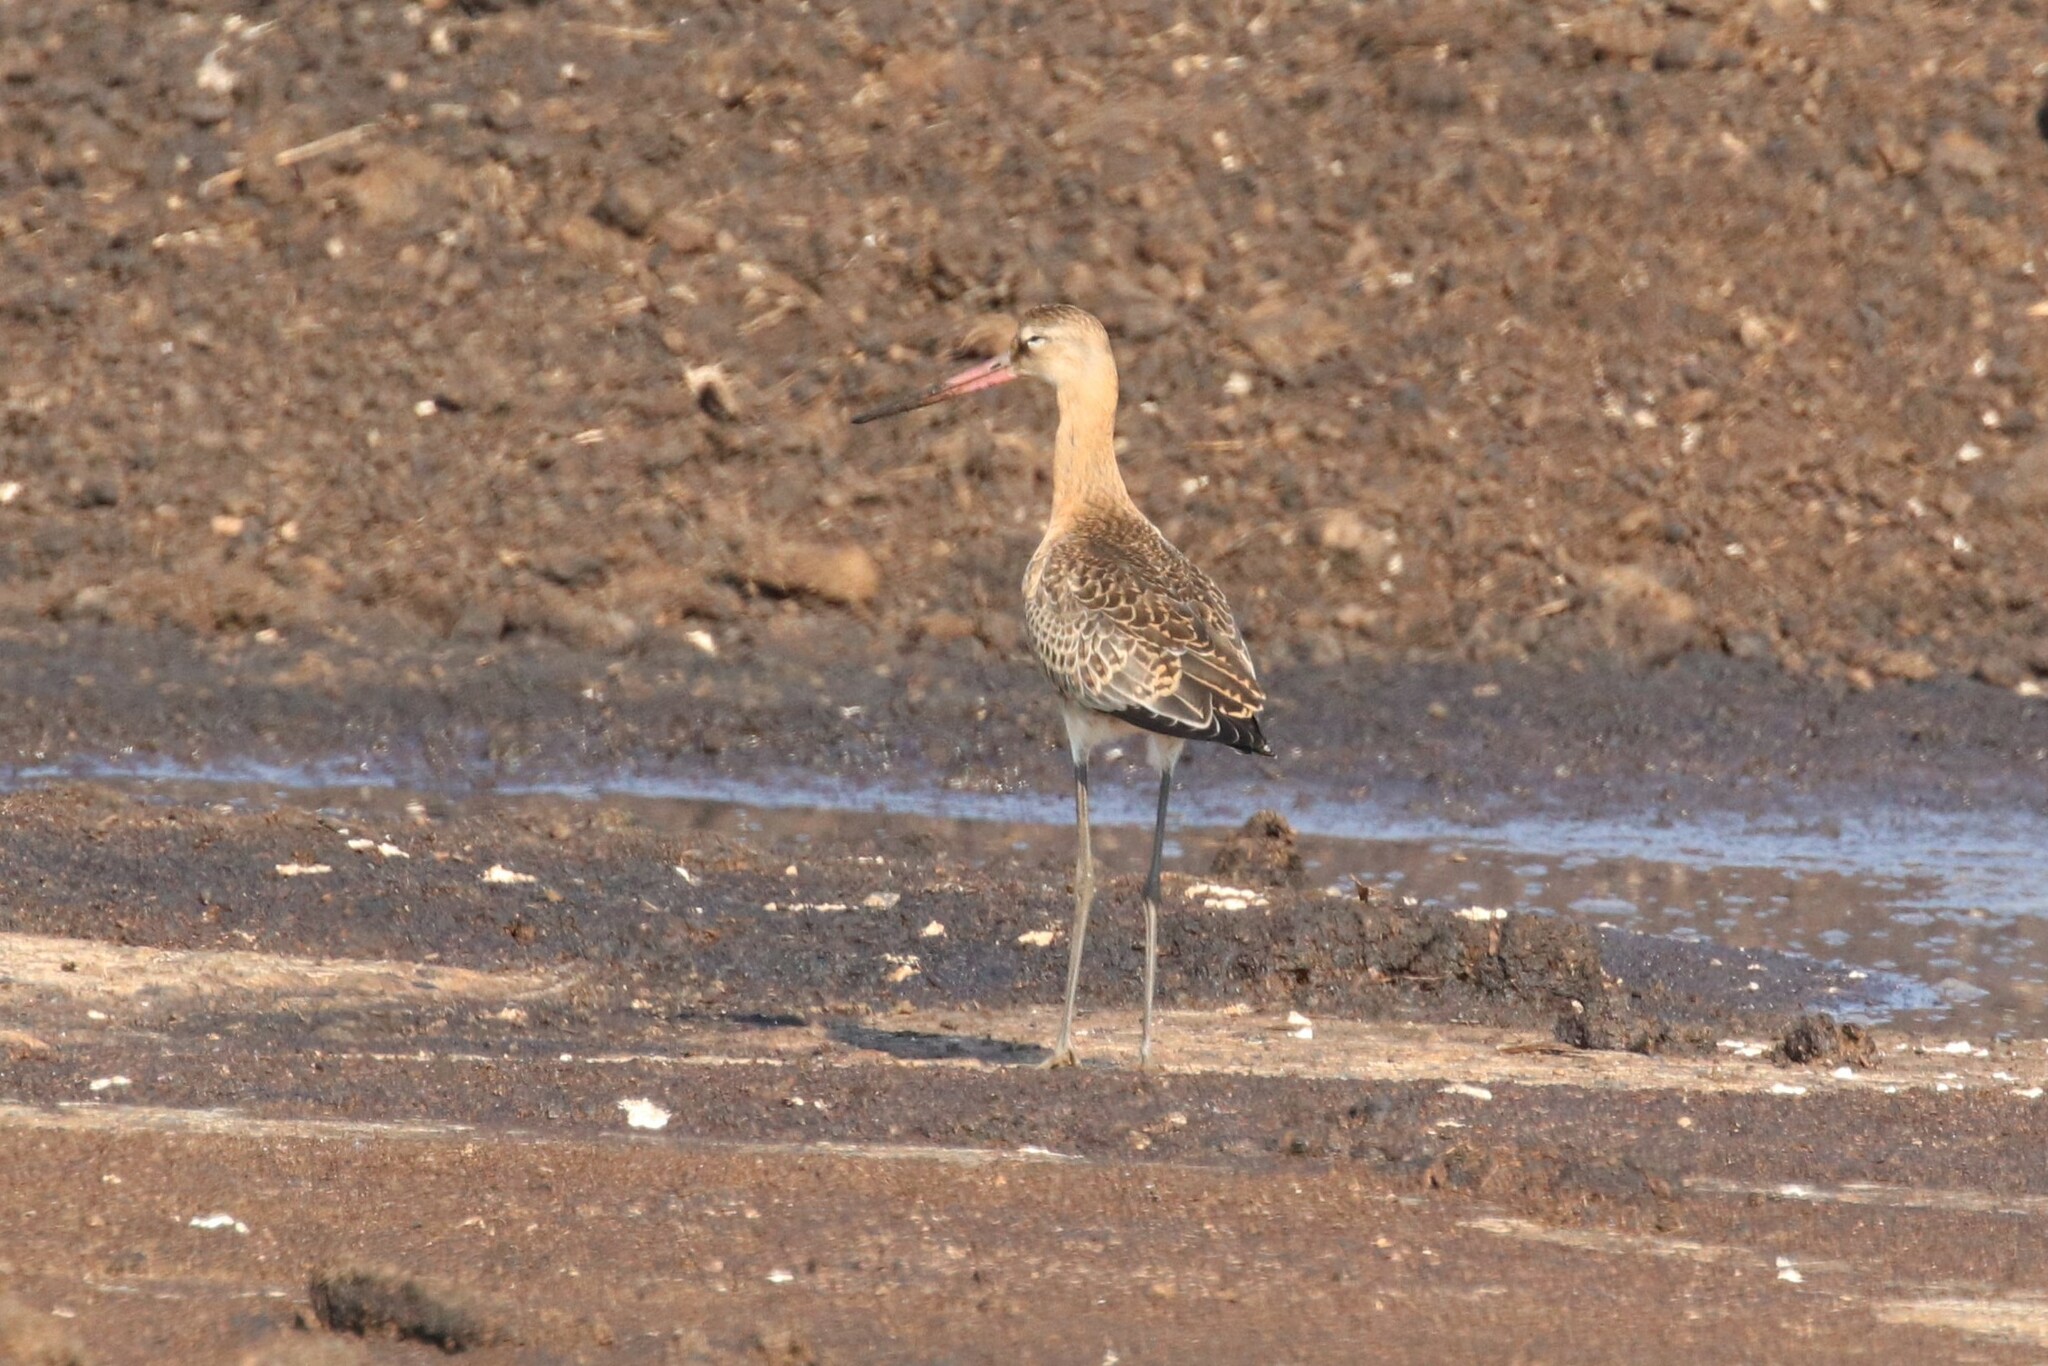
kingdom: Animalia
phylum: Chordata
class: Aves
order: Charadriiformes
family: Scolopacidae
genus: Limosa
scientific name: Limosa limosa
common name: Black-tailed godwit
